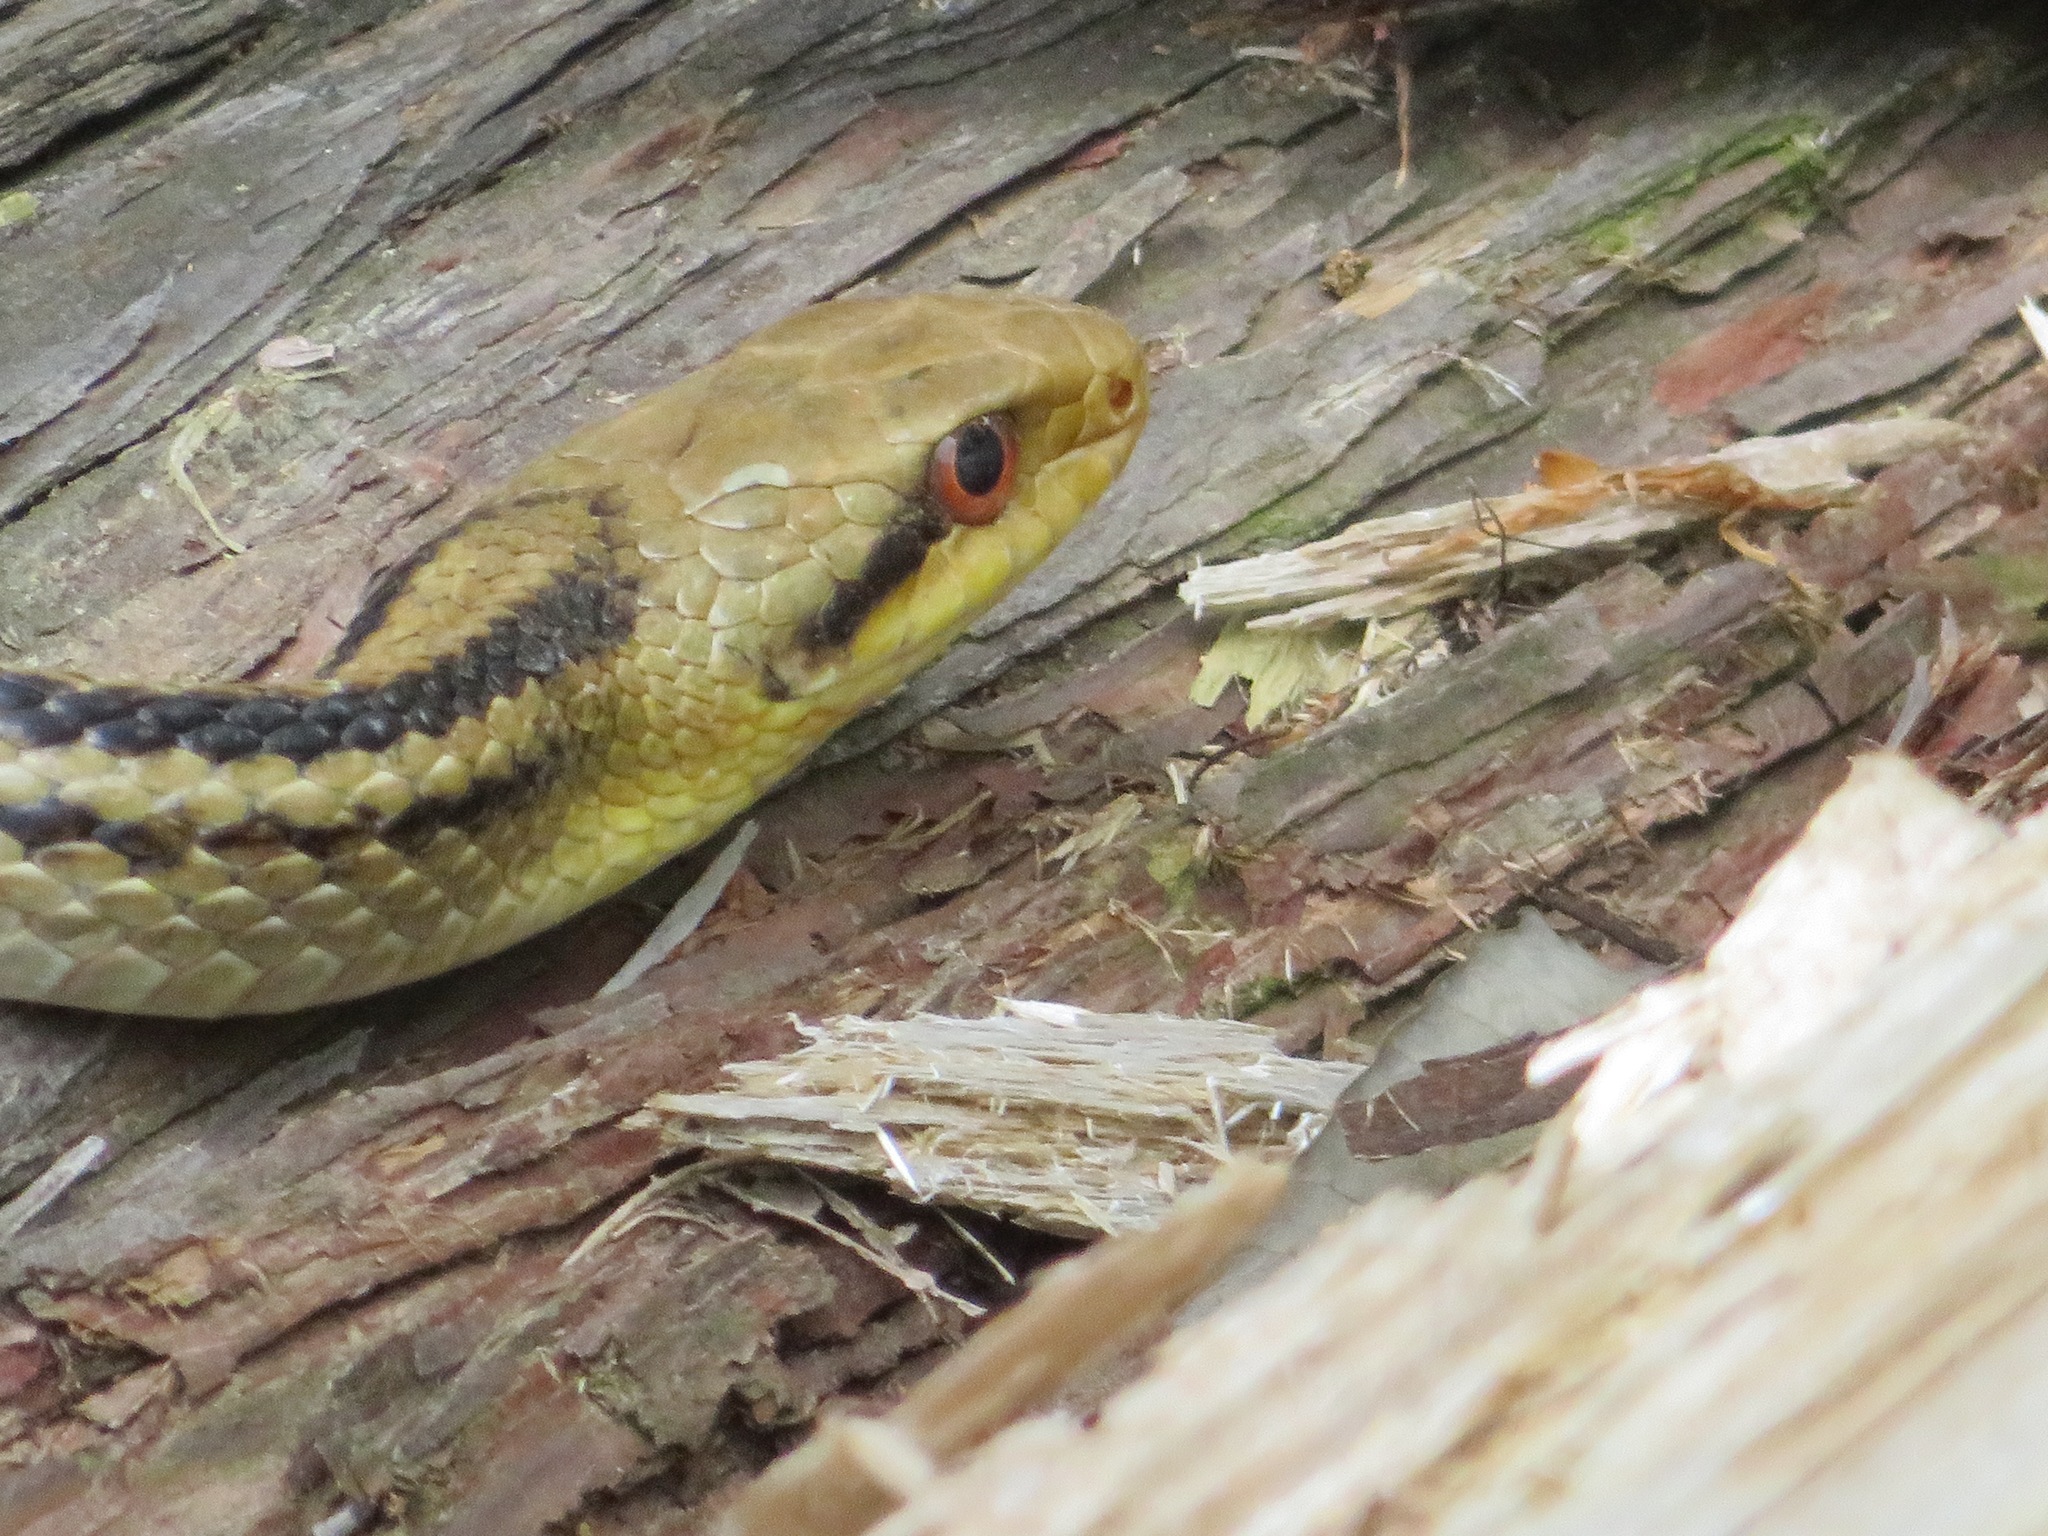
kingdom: Animalia
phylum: Chordata
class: Squamata
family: Colubridae
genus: Elaphe
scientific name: Elaphe quadrivirgata
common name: Japanese four-lined ratsnake
